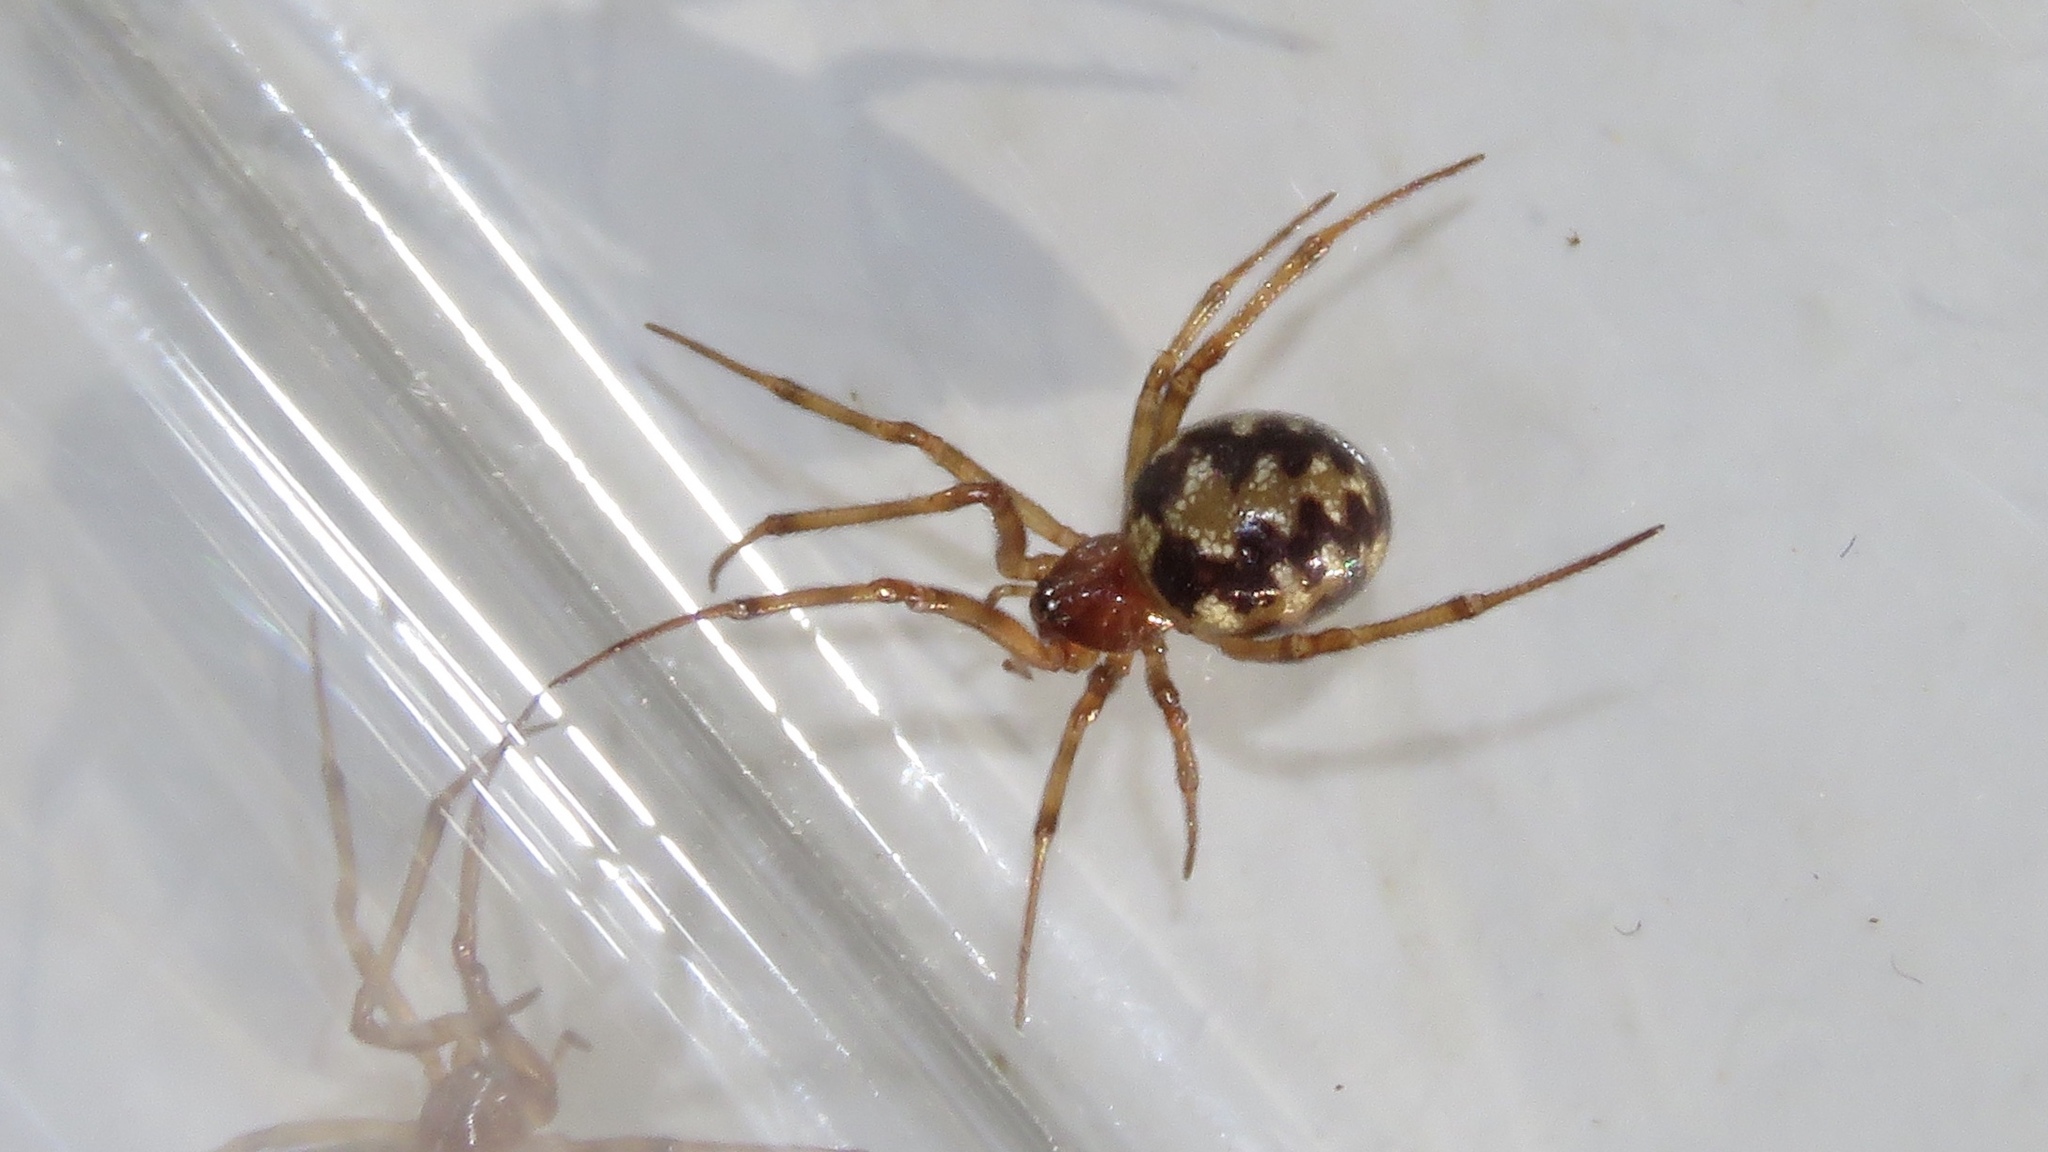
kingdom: Animalia
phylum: Arthropoda
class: Arachnida
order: Araneae
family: Theridiidae
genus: Steatoda
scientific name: Steatoda triangulosa
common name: Triangulate bud spider
